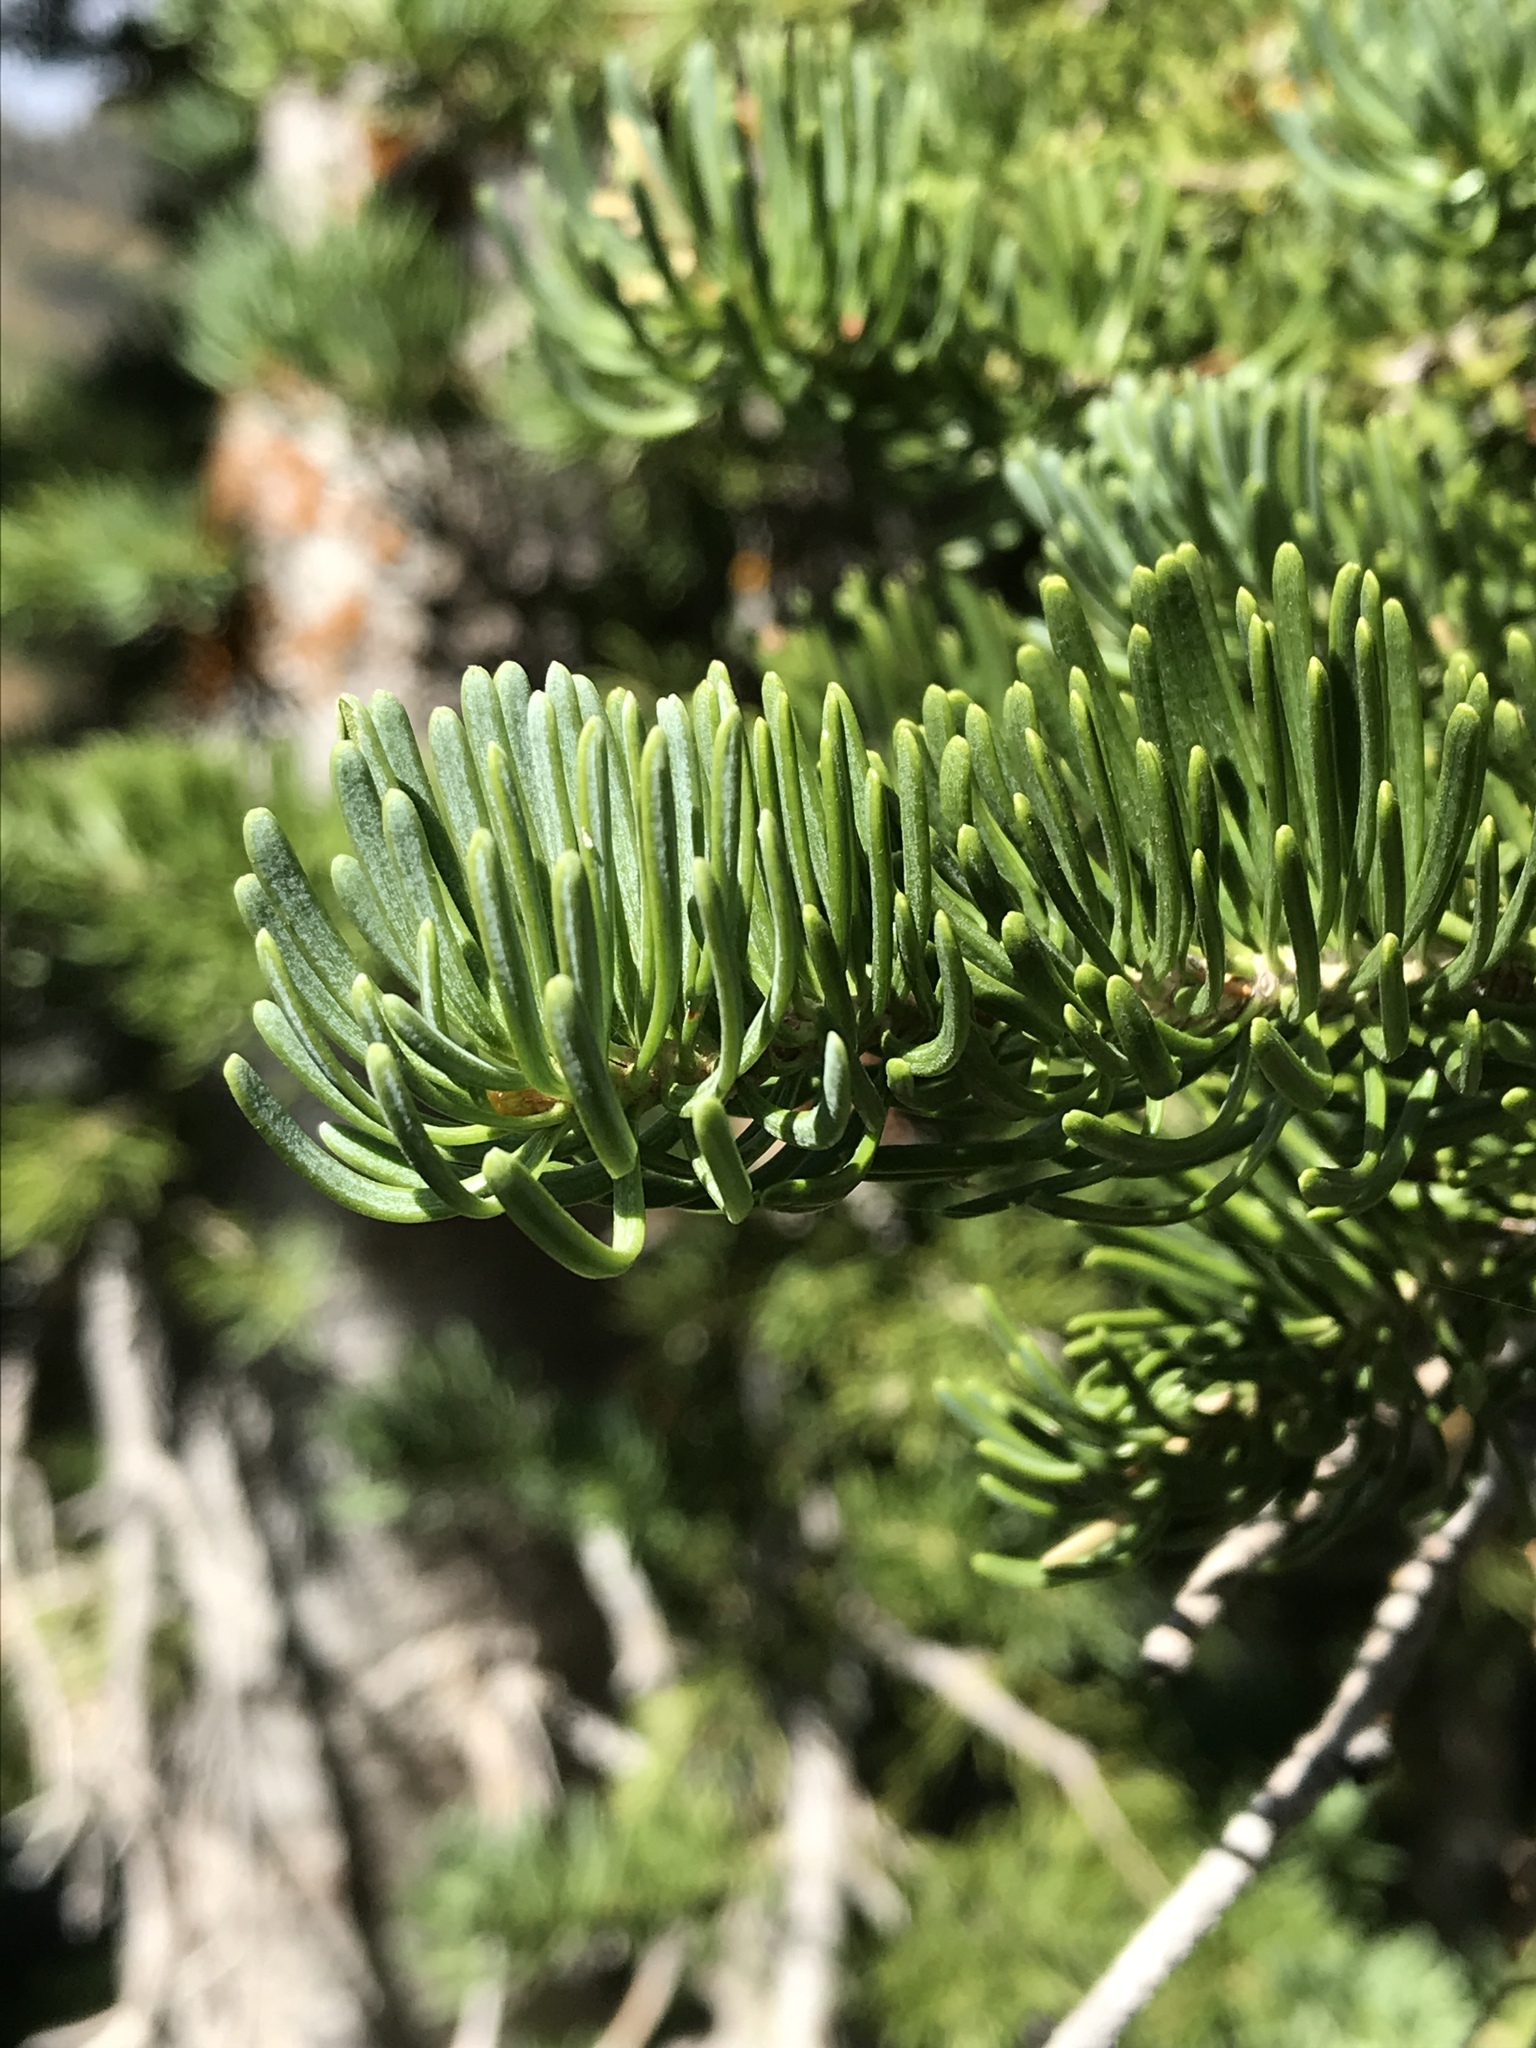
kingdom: Plantae
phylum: Tracheophyta
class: Pinopsida
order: Pinales
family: Pinaceae
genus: Abies
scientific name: Abies lasiocarpa
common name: Subalpine fir
